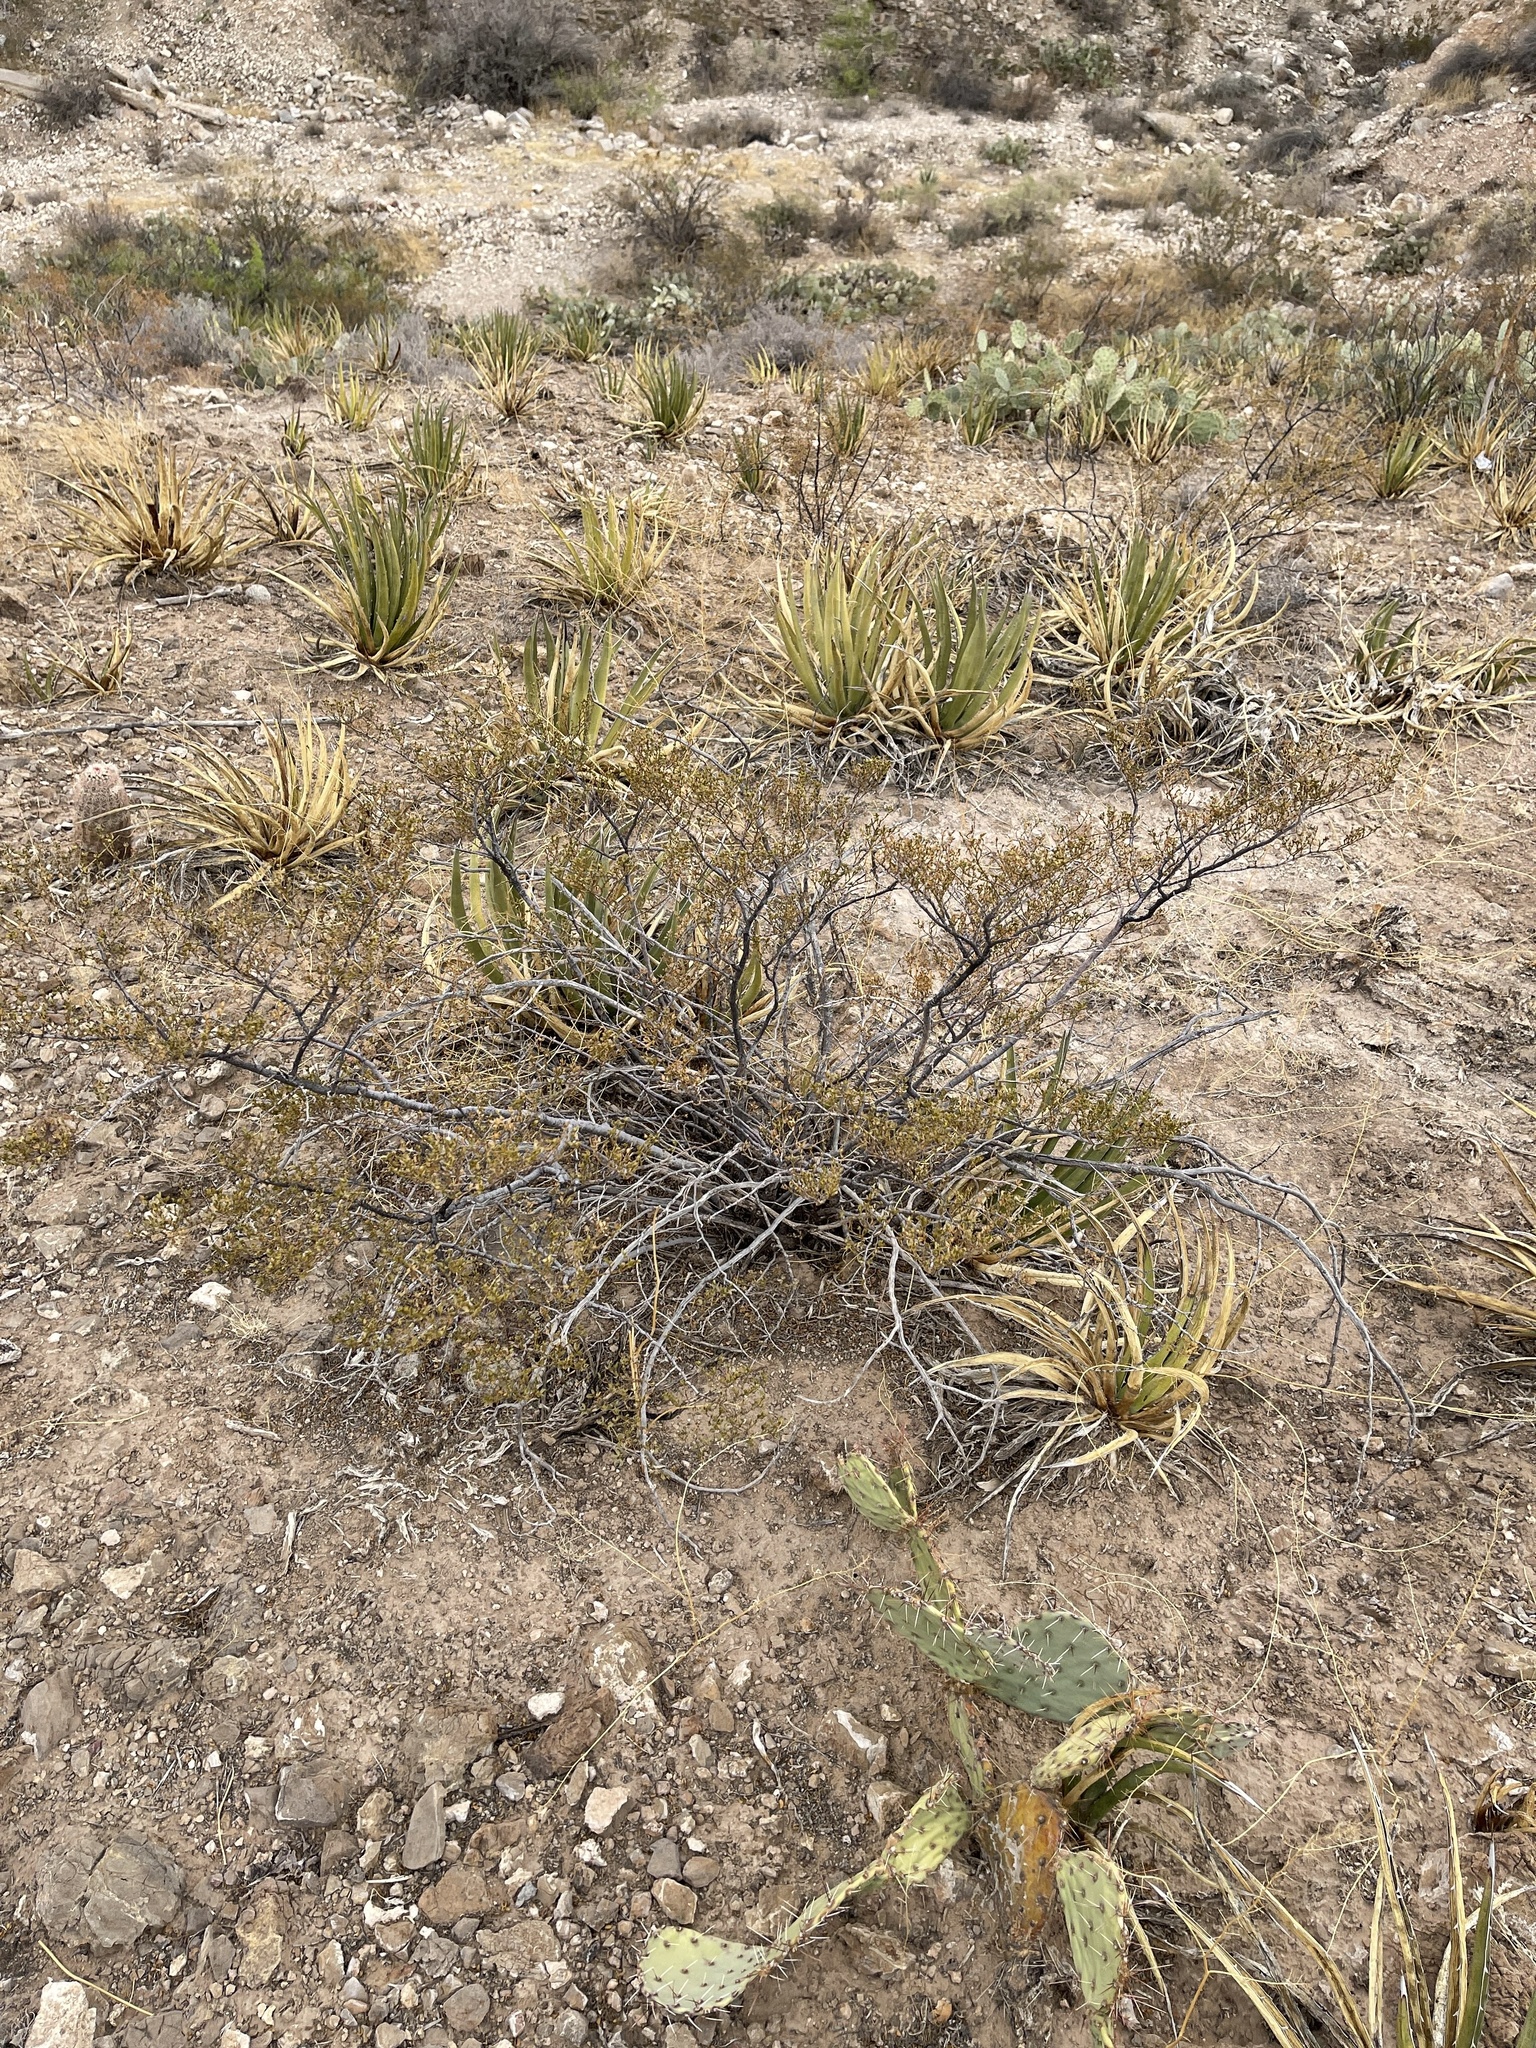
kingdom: Plantae
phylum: Tracheophyta
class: Magnoliopsida
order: Zygophyllales
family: Zygophyllaceae
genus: Larrea
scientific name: Larrea tridentata
